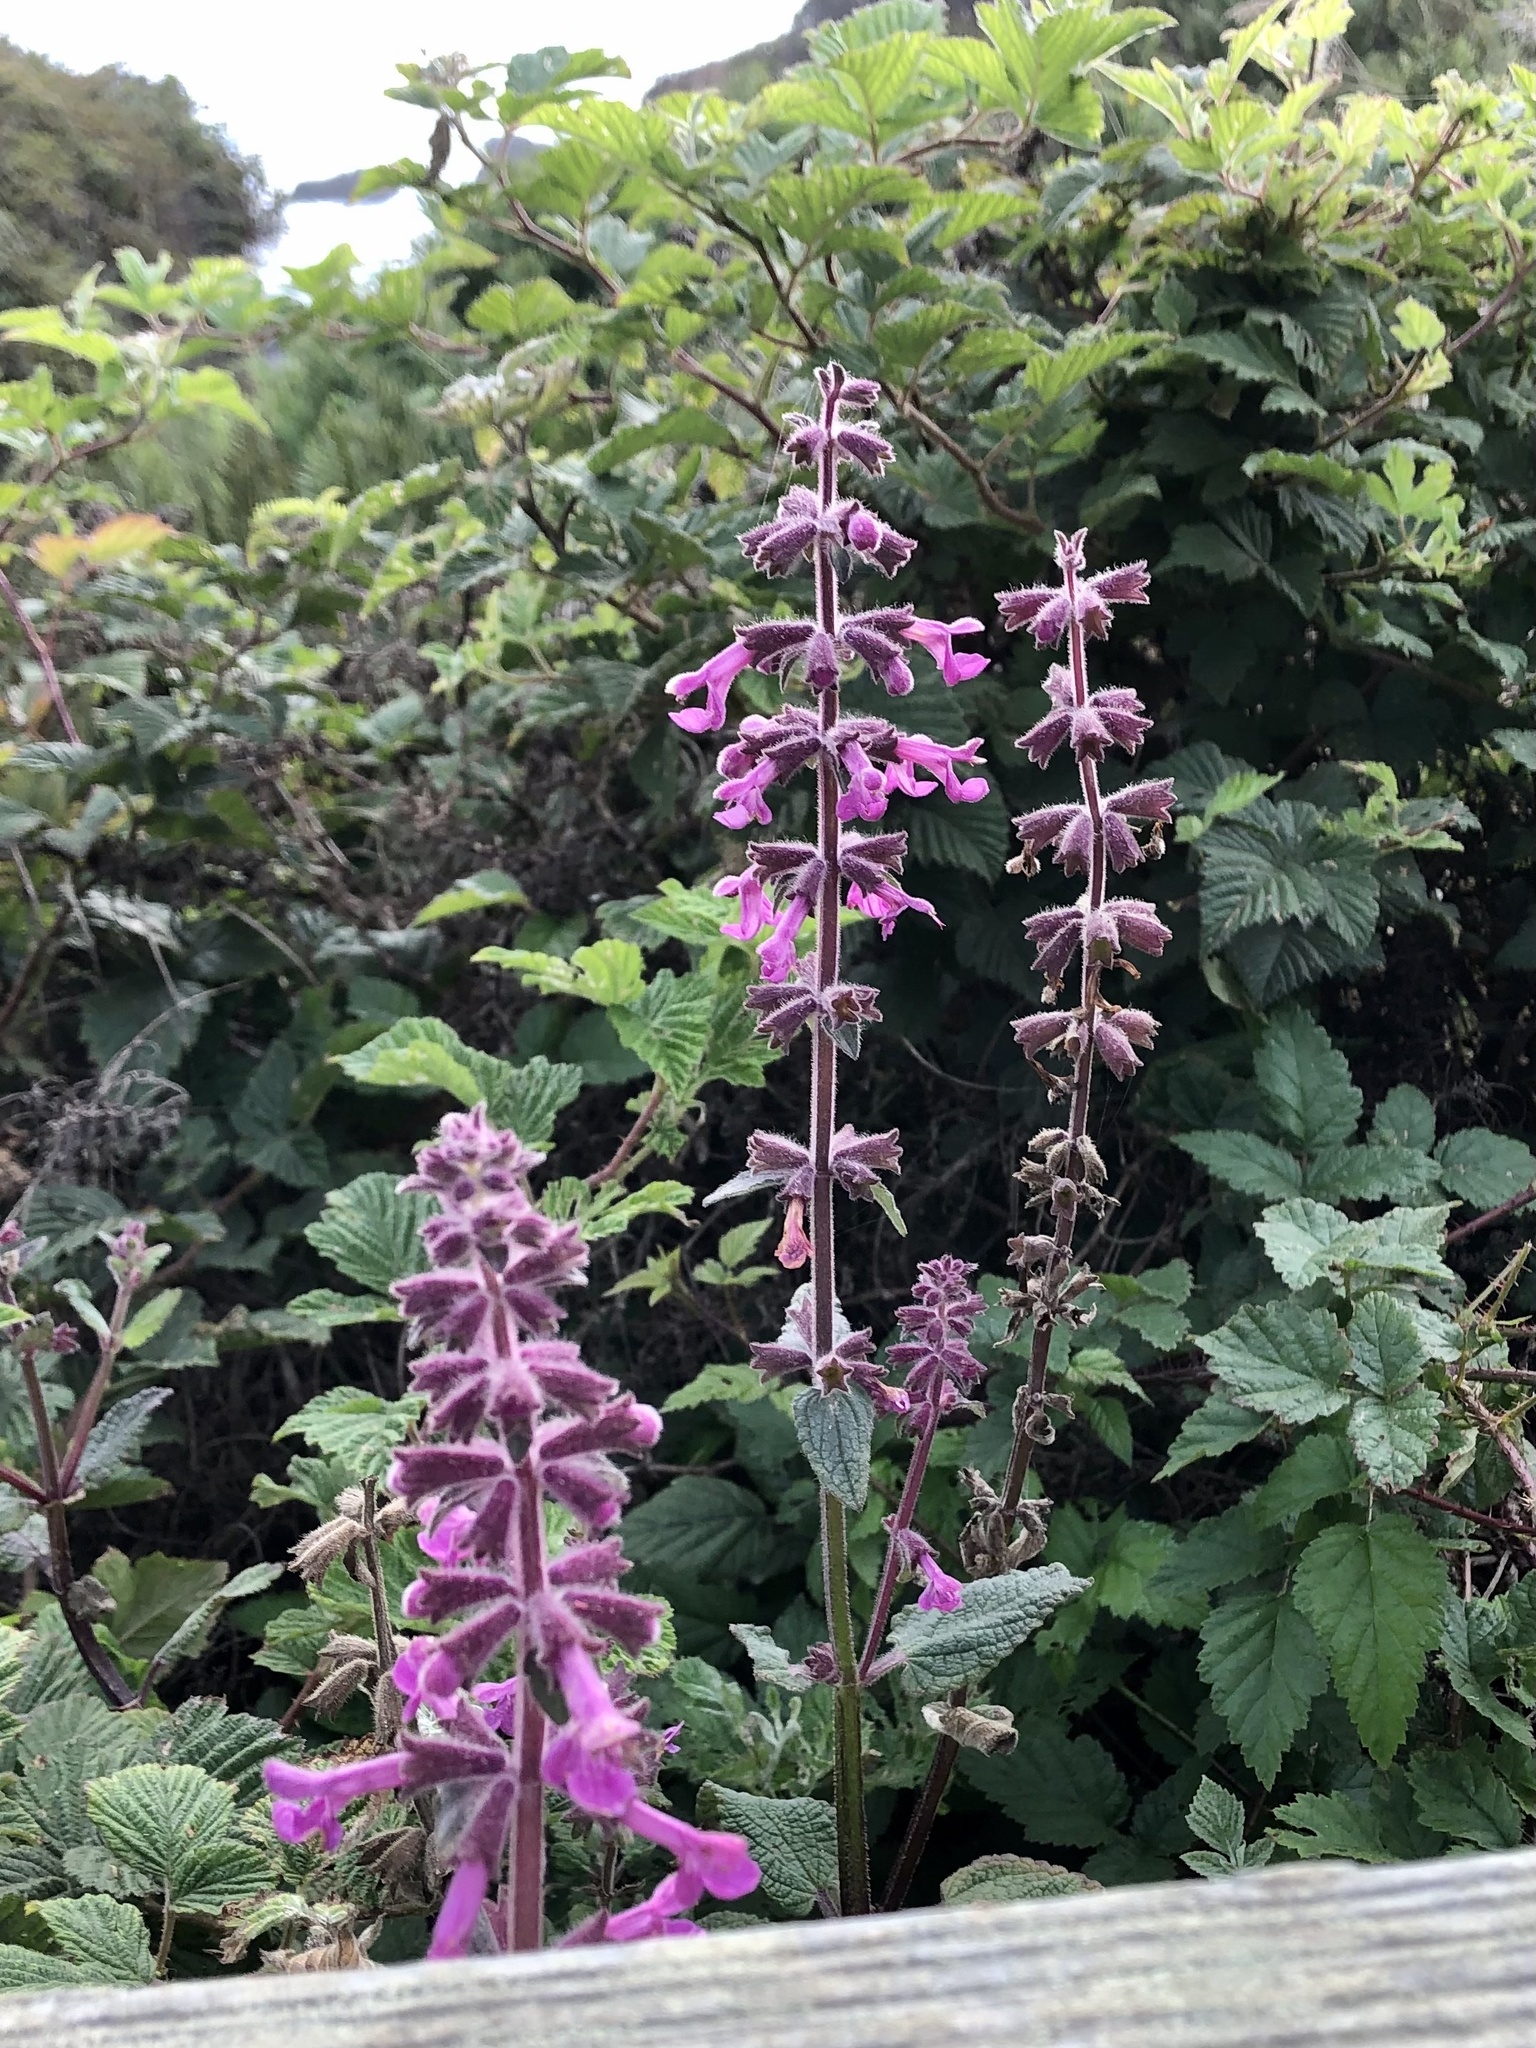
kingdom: Plantae
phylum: Tracheophyta
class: Magnoliopsida
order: Lamiales
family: Lamiaceae
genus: Stachys
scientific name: Stachys chamissonis
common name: Coastal hedge-nettle
